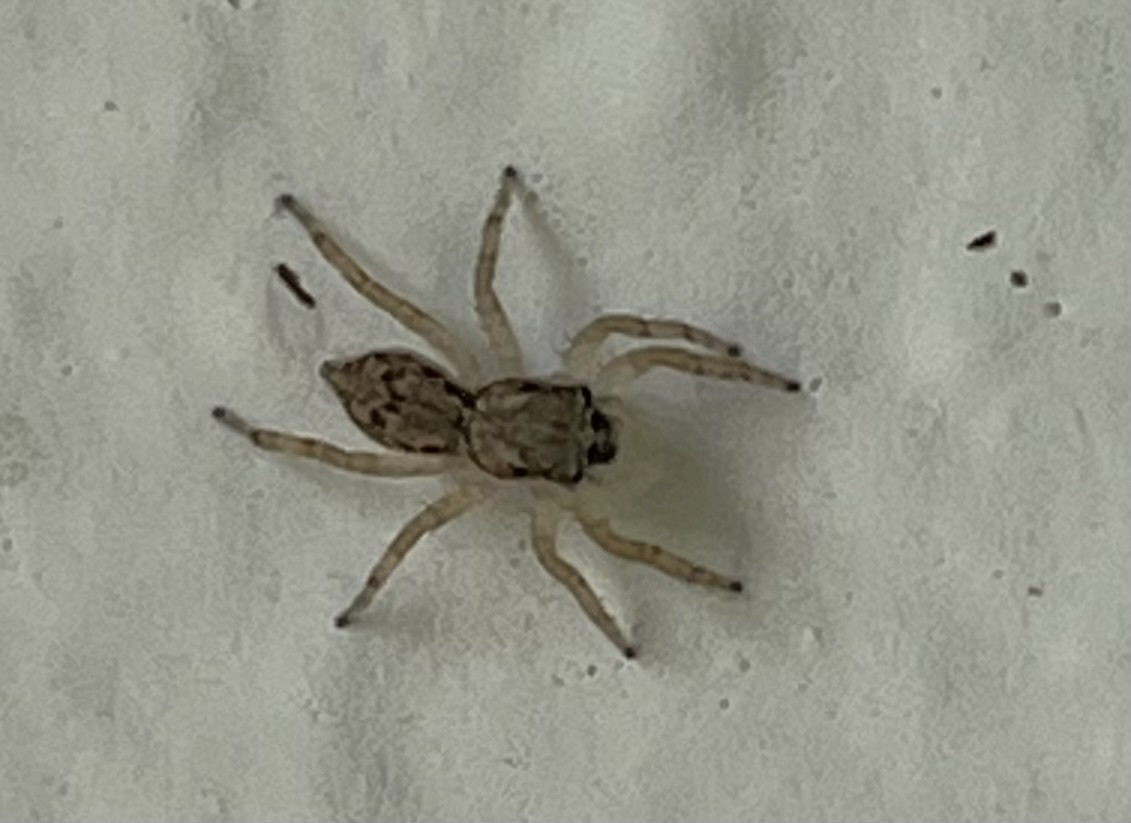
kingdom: Animalia
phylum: Arthropoda
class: Arachnida
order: Araneae
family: Salticidae
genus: Menemerus
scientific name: Menemerus bivittatus
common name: Gray wall jumper
